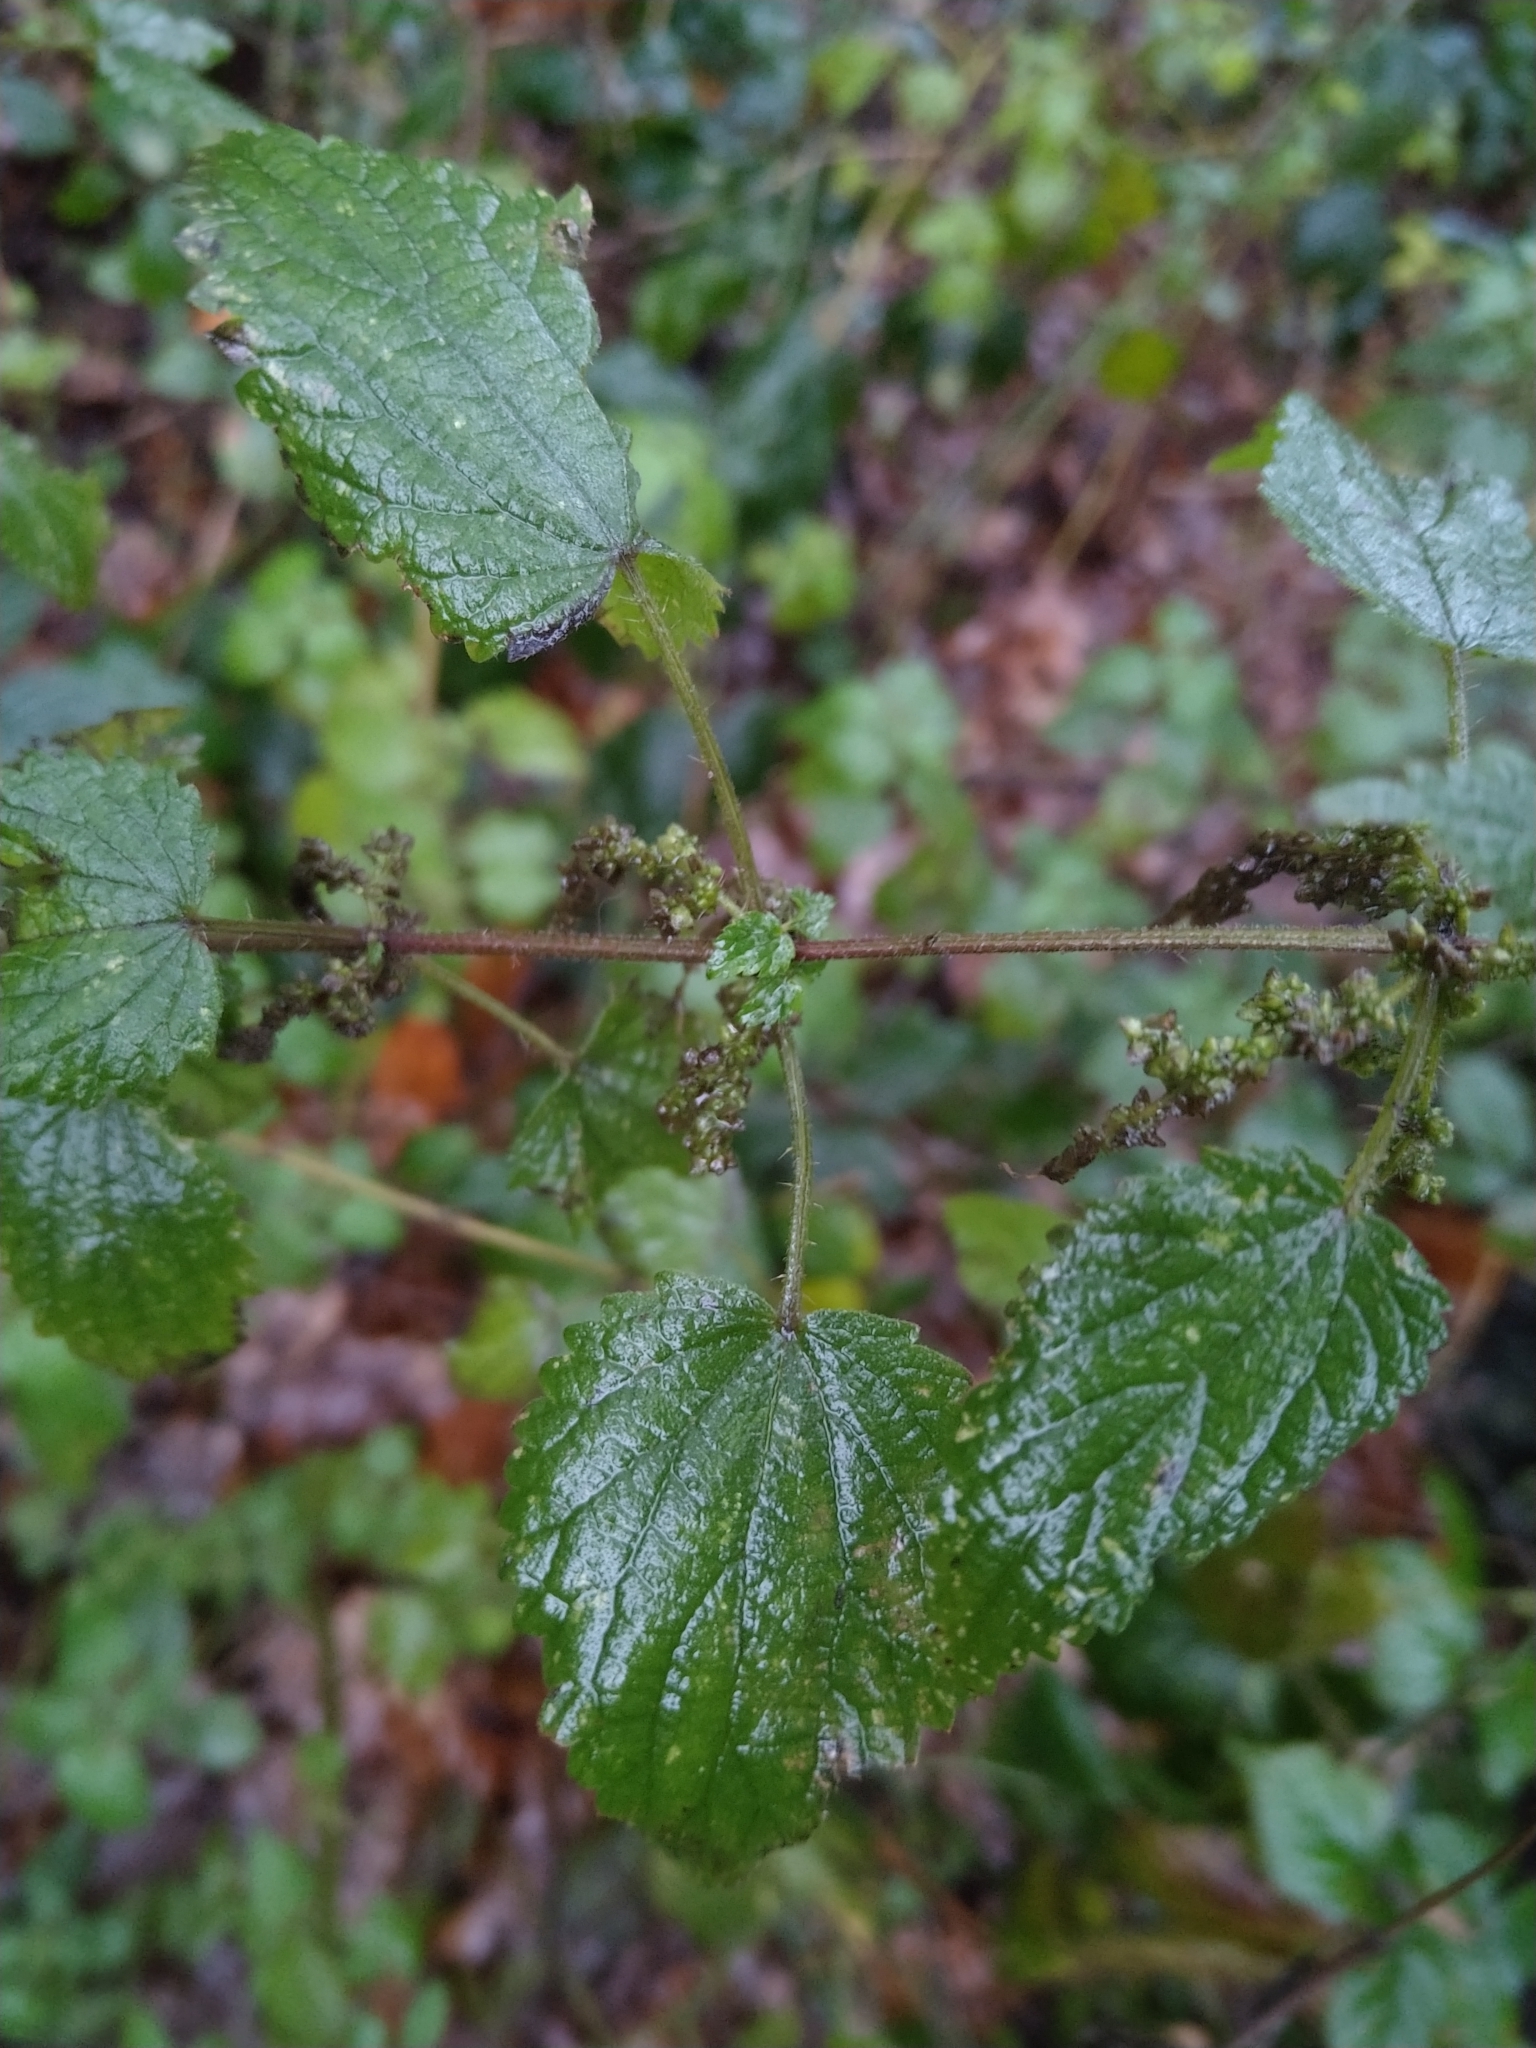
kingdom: Plantae
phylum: Tracheophyta
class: Magnoliopsida
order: Rosales
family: Urticaceae
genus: Urtica
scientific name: Urtica dioica
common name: Common nettle
